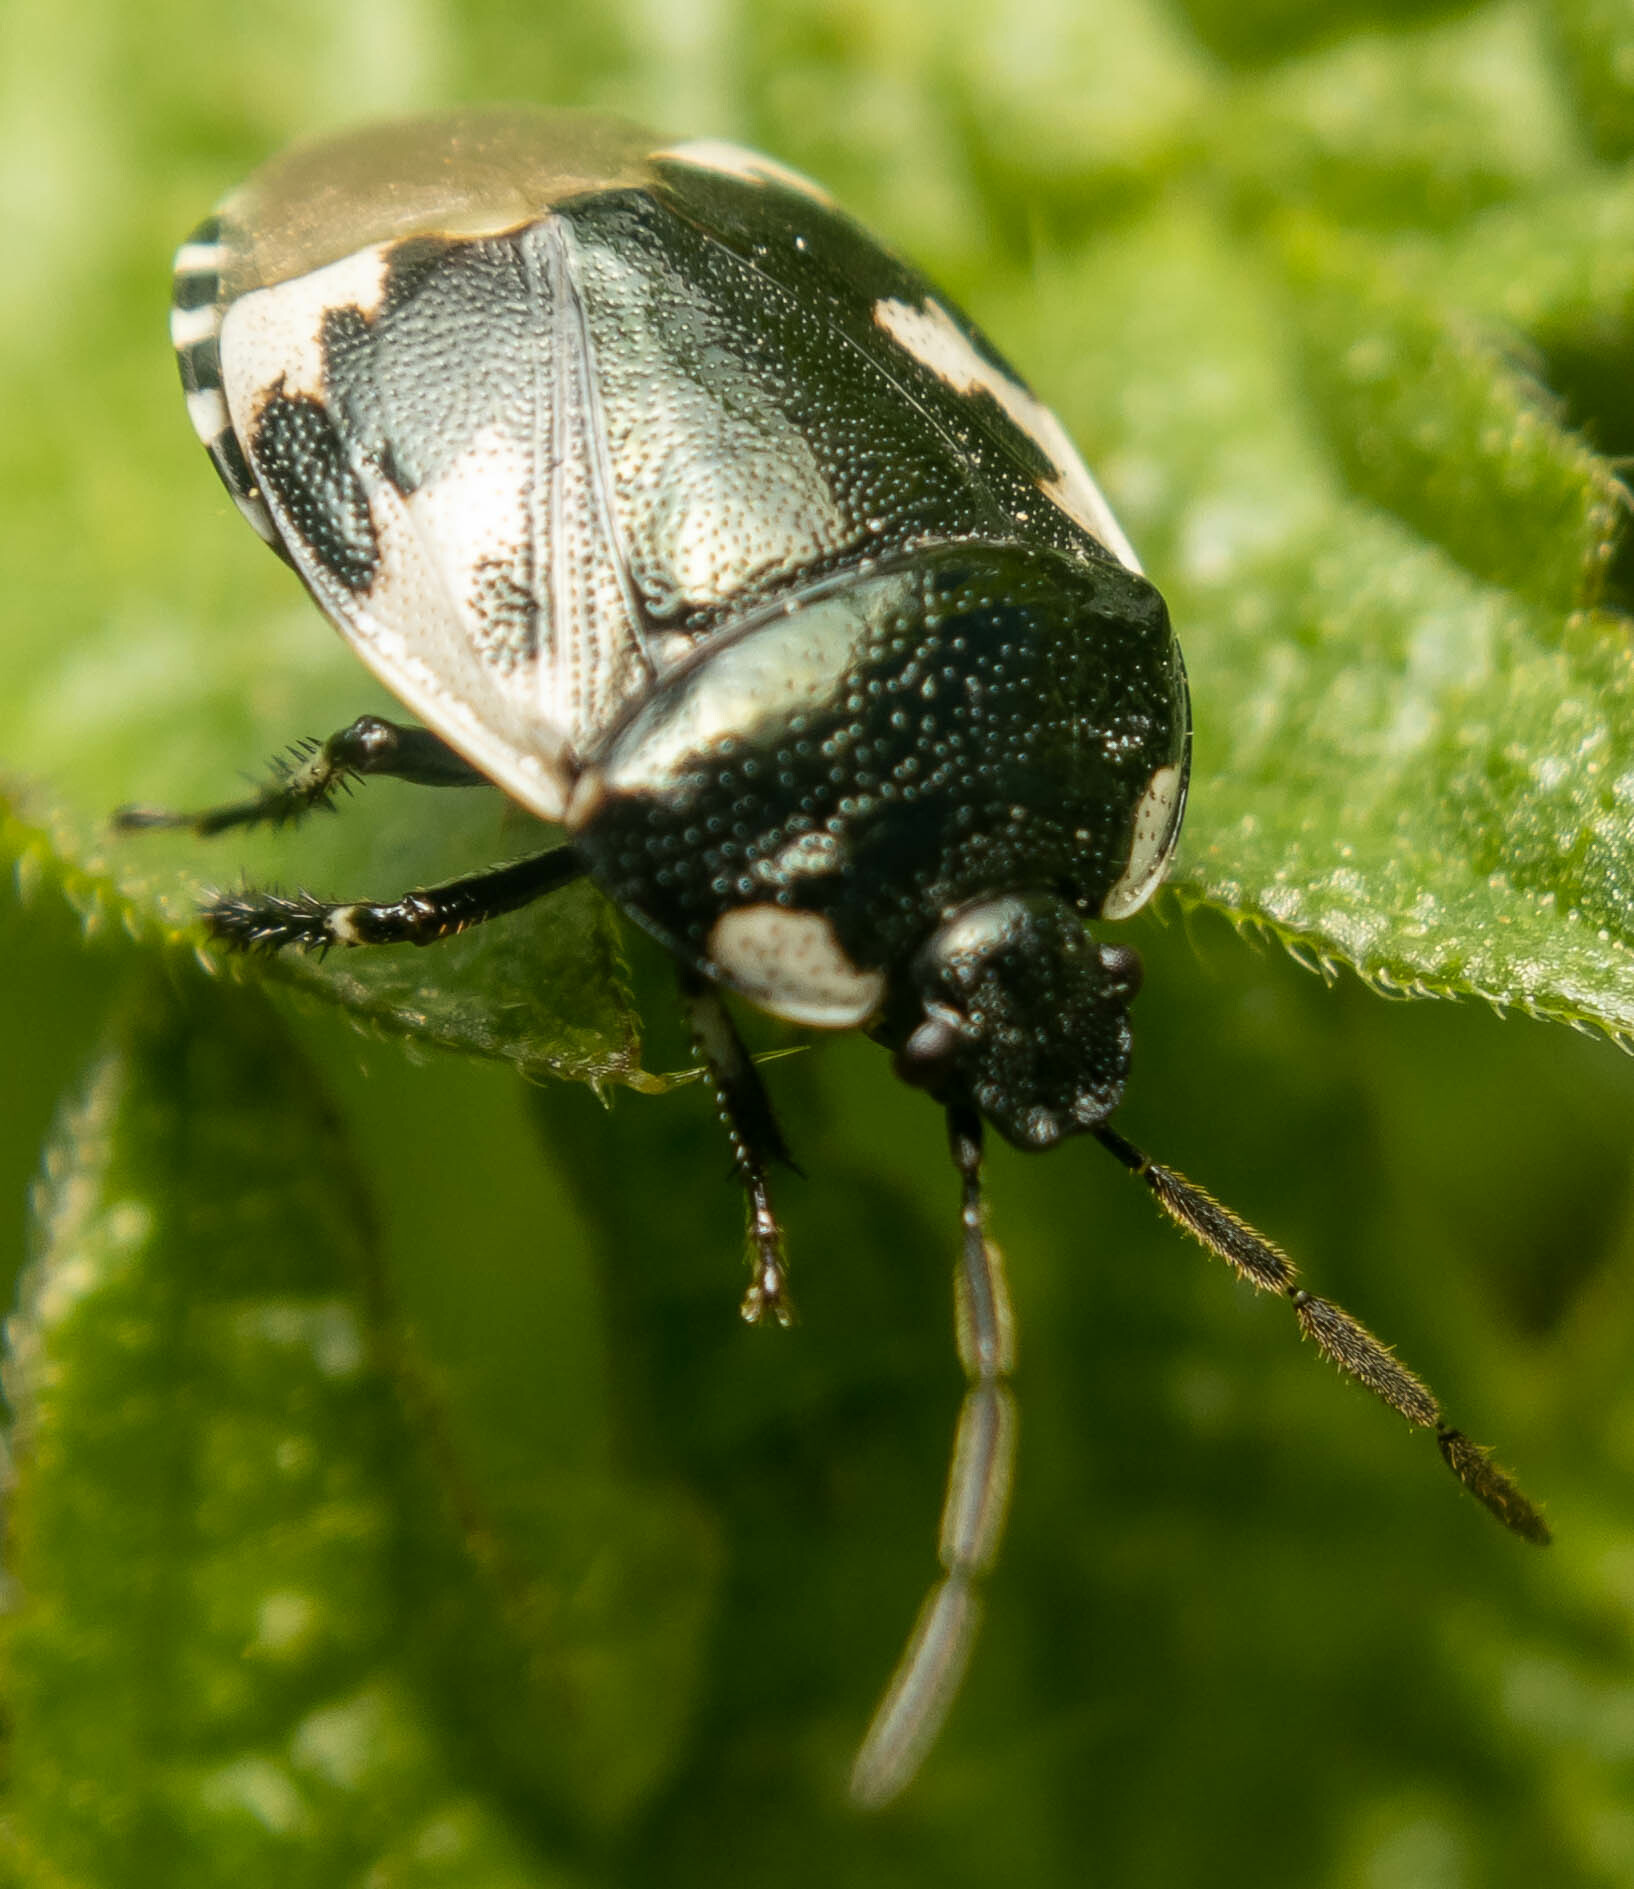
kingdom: Animalia
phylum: Arthropoda
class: Insecta
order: Hemiptera
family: Cydnidae
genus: Tritomegas
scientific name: Tritomegas bicolor
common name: Pied shieldbug
